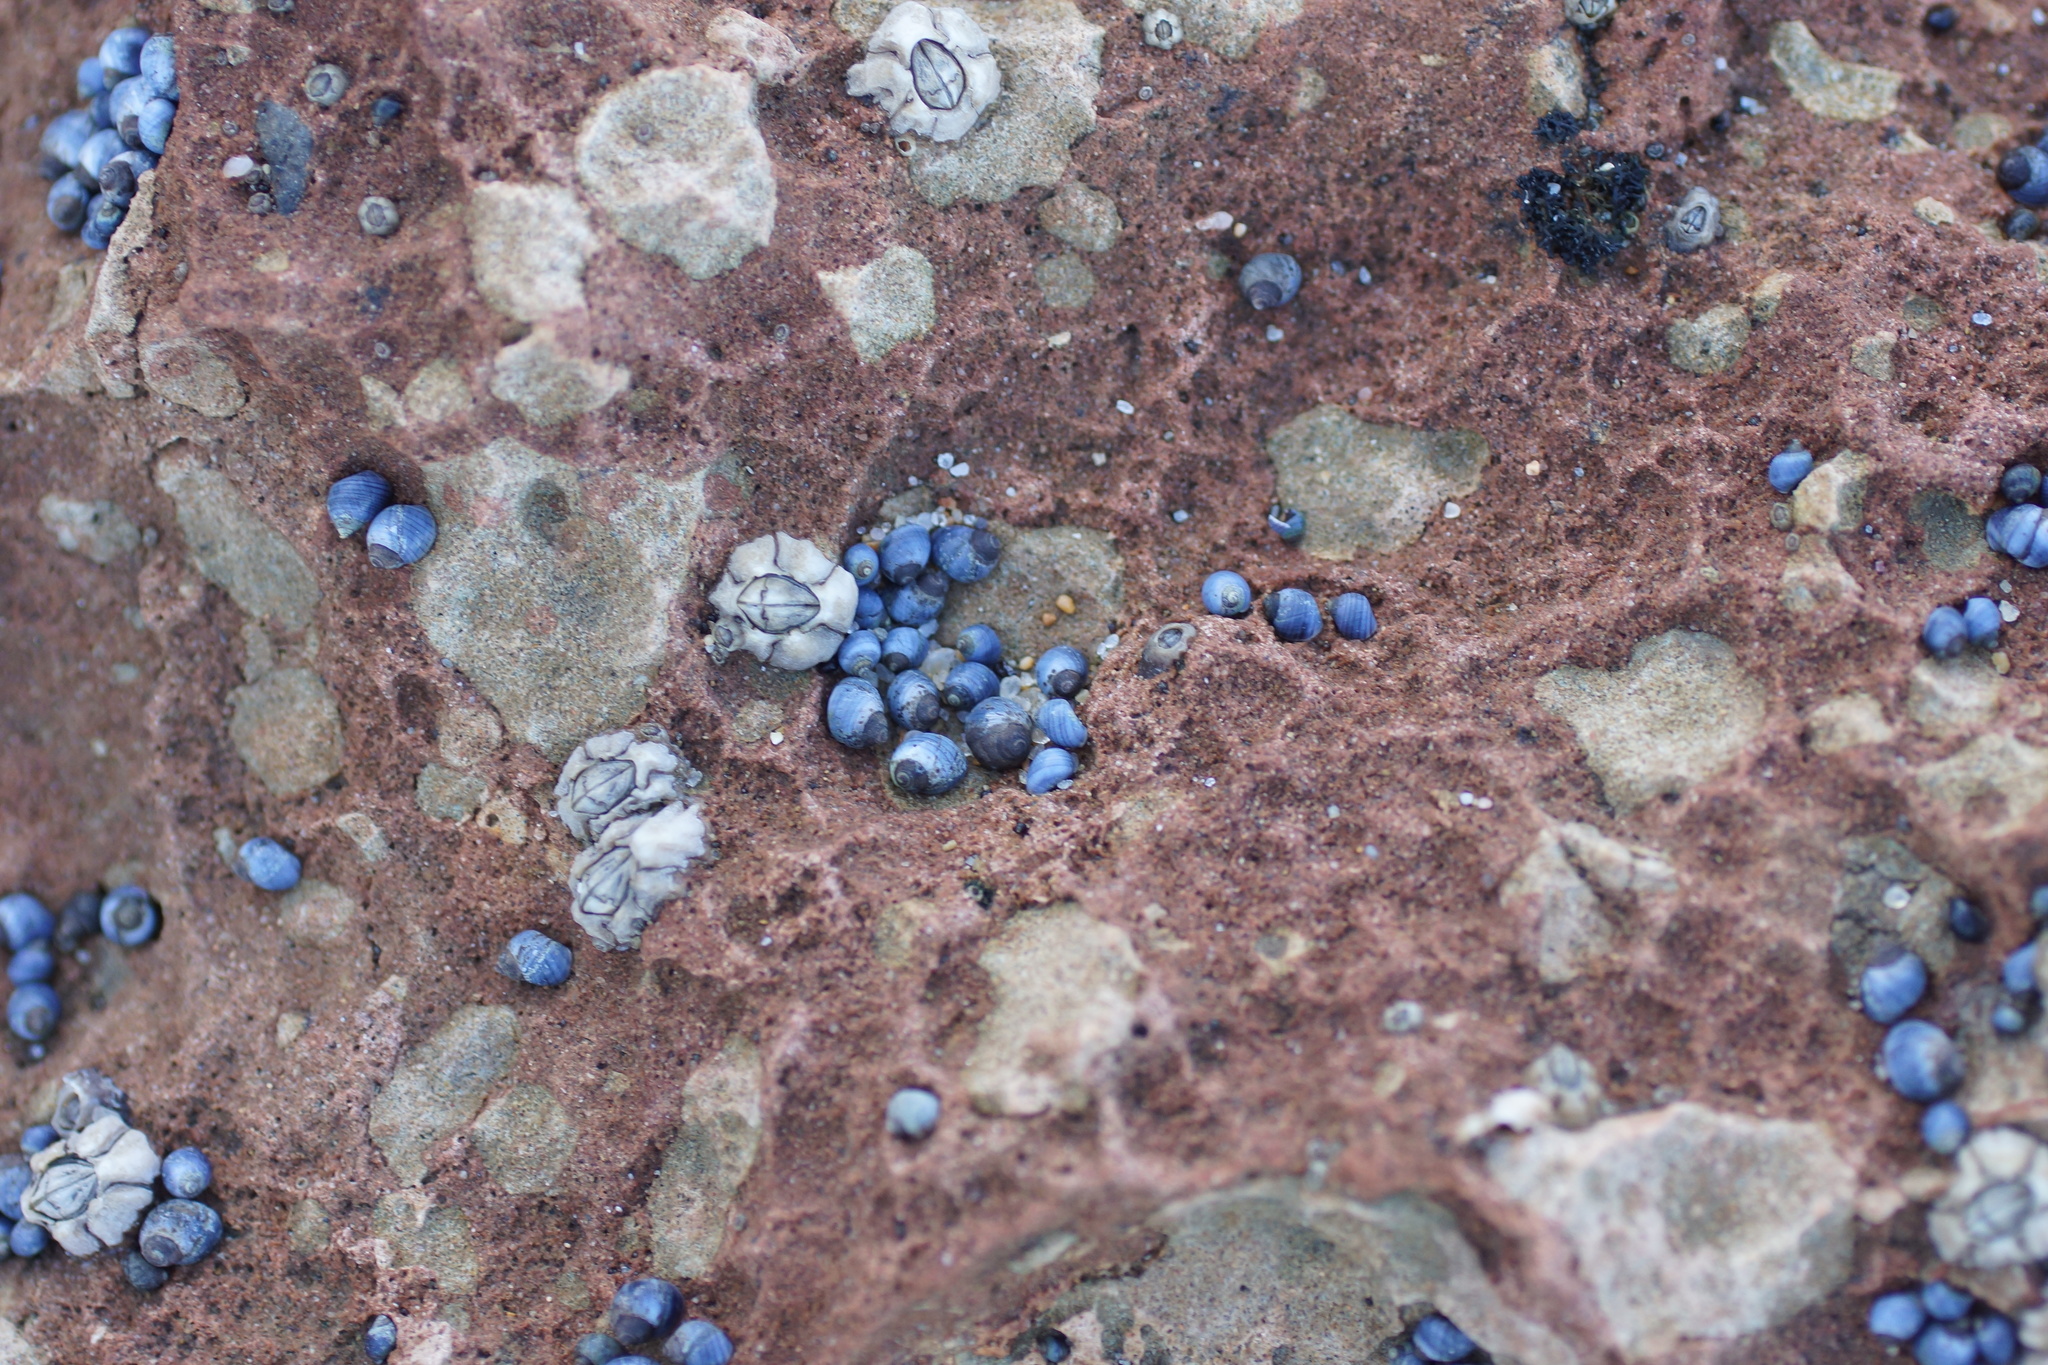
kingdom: Animalia
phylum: Mollusca
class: Gastropoda
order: Littorinimorpha
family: Littorinidae
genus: Austrolittorina
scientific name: Austrolittorina unifasciata
